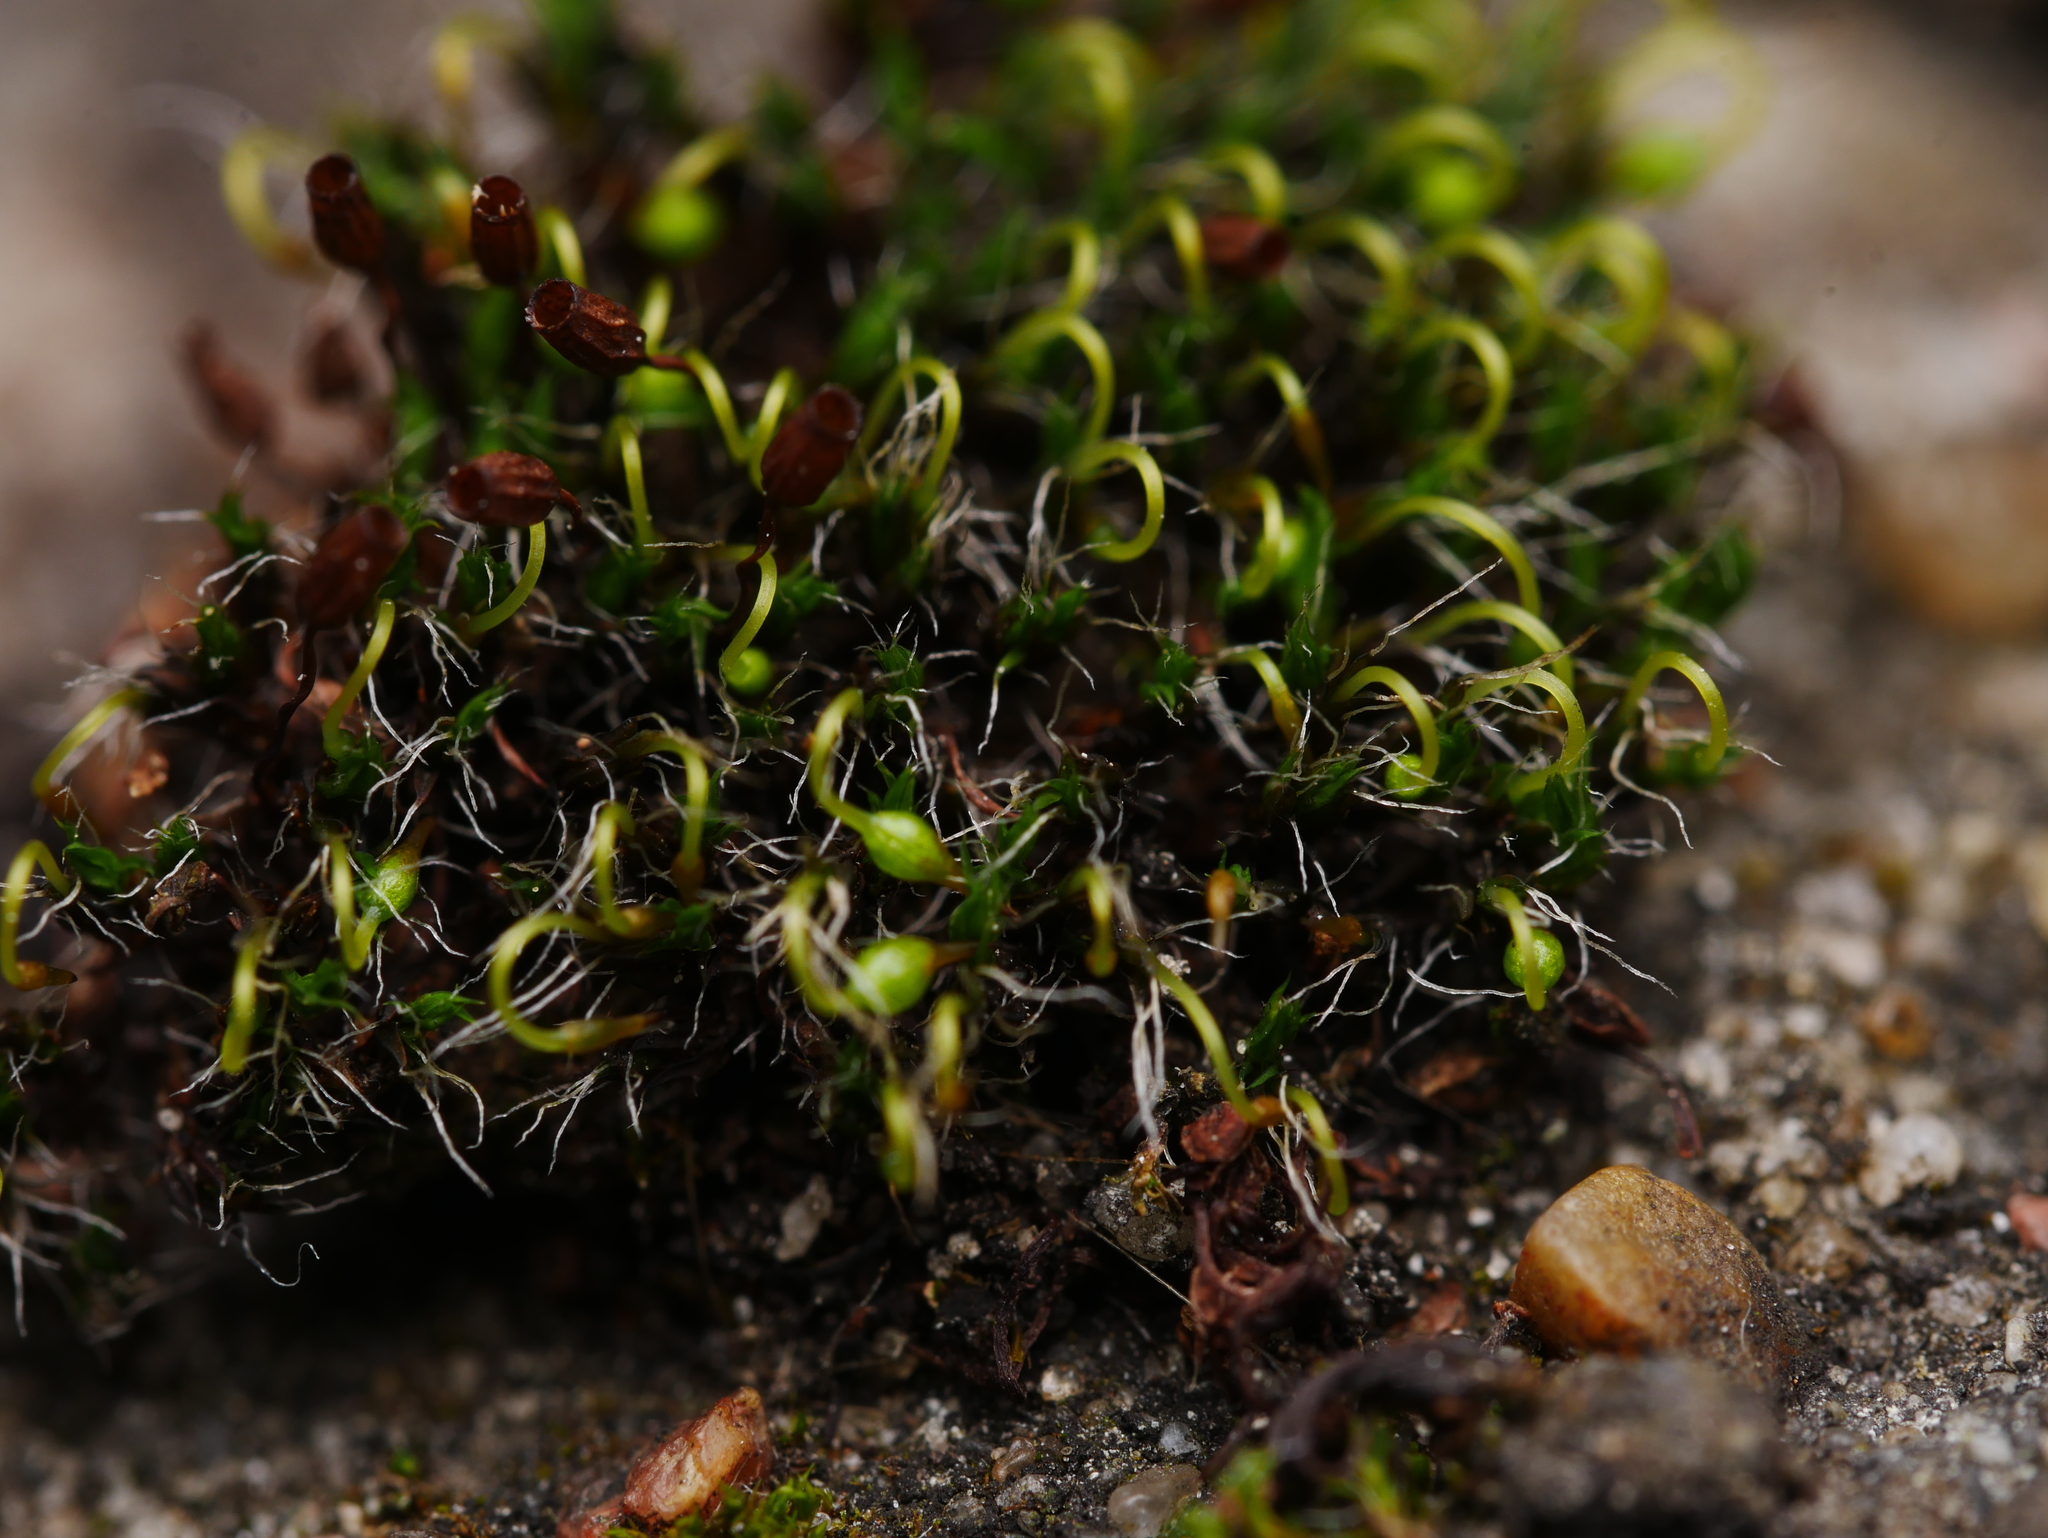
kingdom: Plantae
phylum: Bryophyta
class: Bryopsida
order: Grimmiales
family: Grimmiaceae
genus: Grimmia
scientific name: Grimmia pulvinata
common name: Grey-cushioned grimmia
